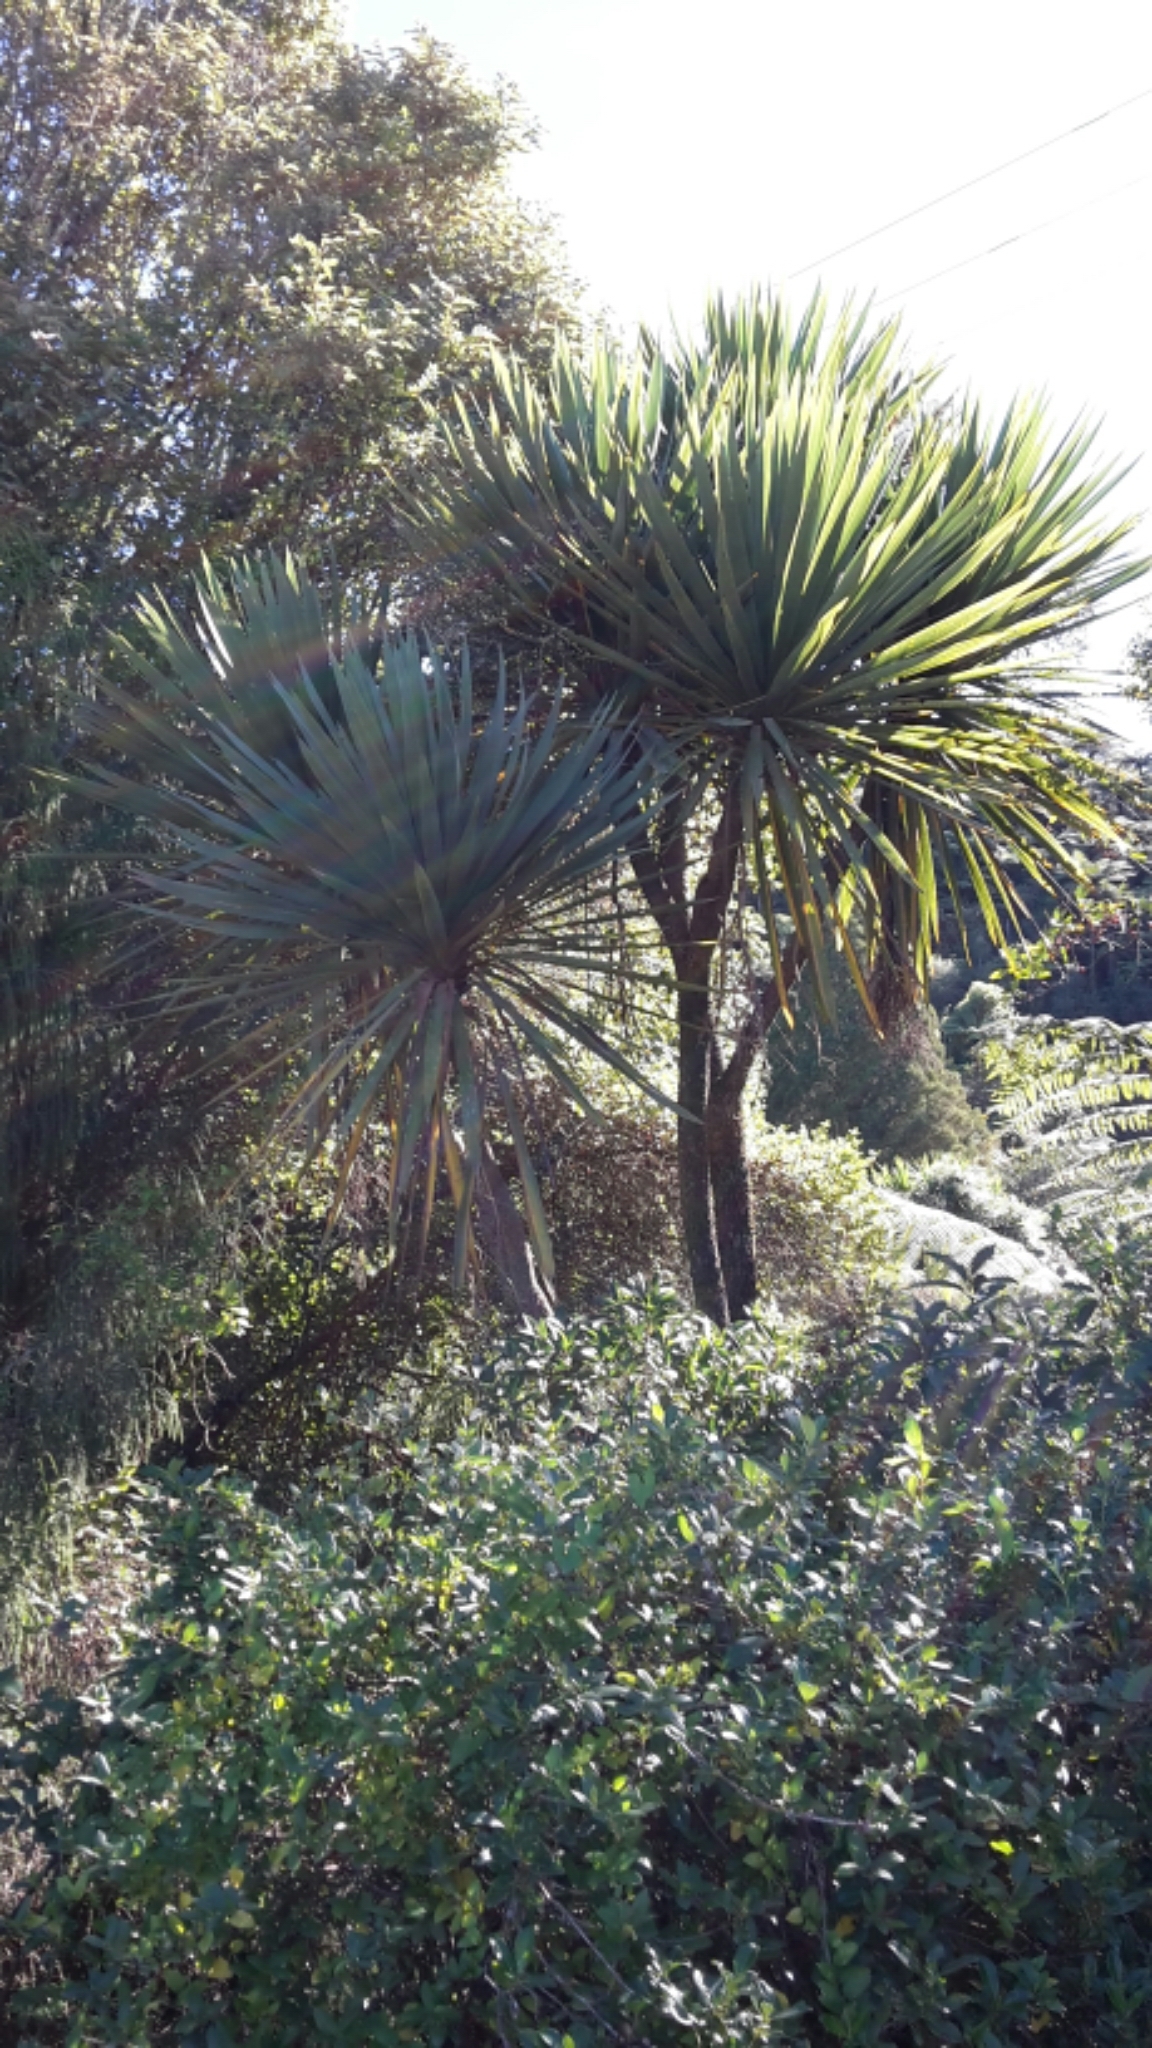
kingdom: Plantae
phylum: Tracheophyta
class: Liliopsida
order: Asparagales
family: Asparagaceae
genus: Cordyline
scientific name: Cordyline australis
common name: Cabbage-palm
